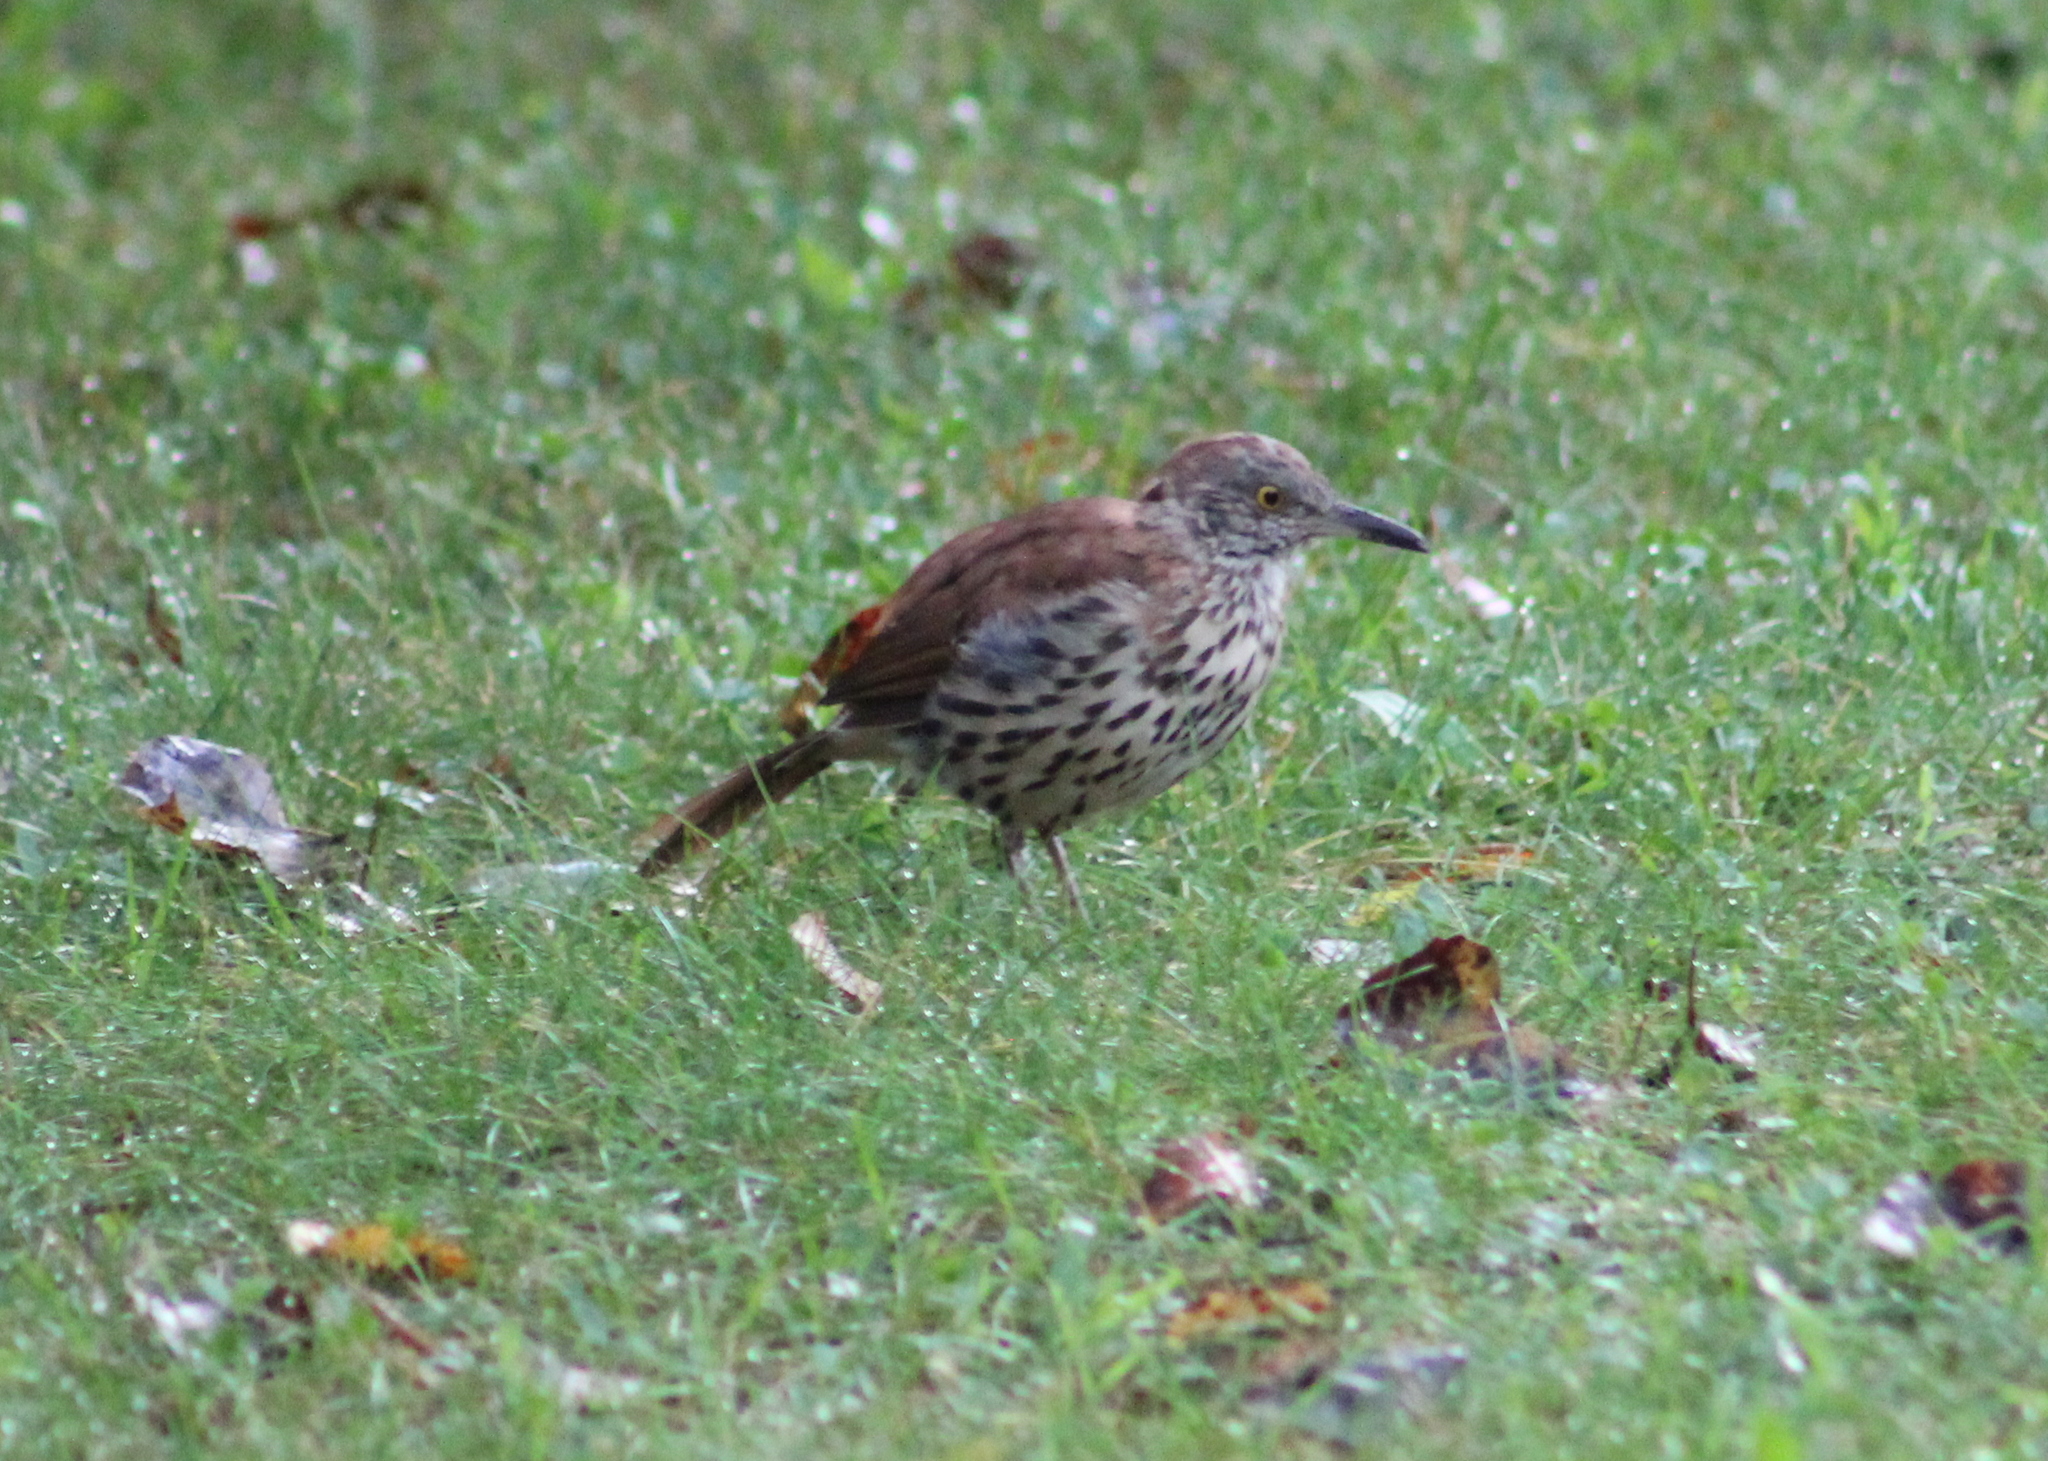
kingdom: Animalia
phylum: Chordata
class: Aves
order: Passeriformes
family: Mimidae
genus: Toxostoma
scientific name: Toxostoma rufum
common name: Brown thrasher
